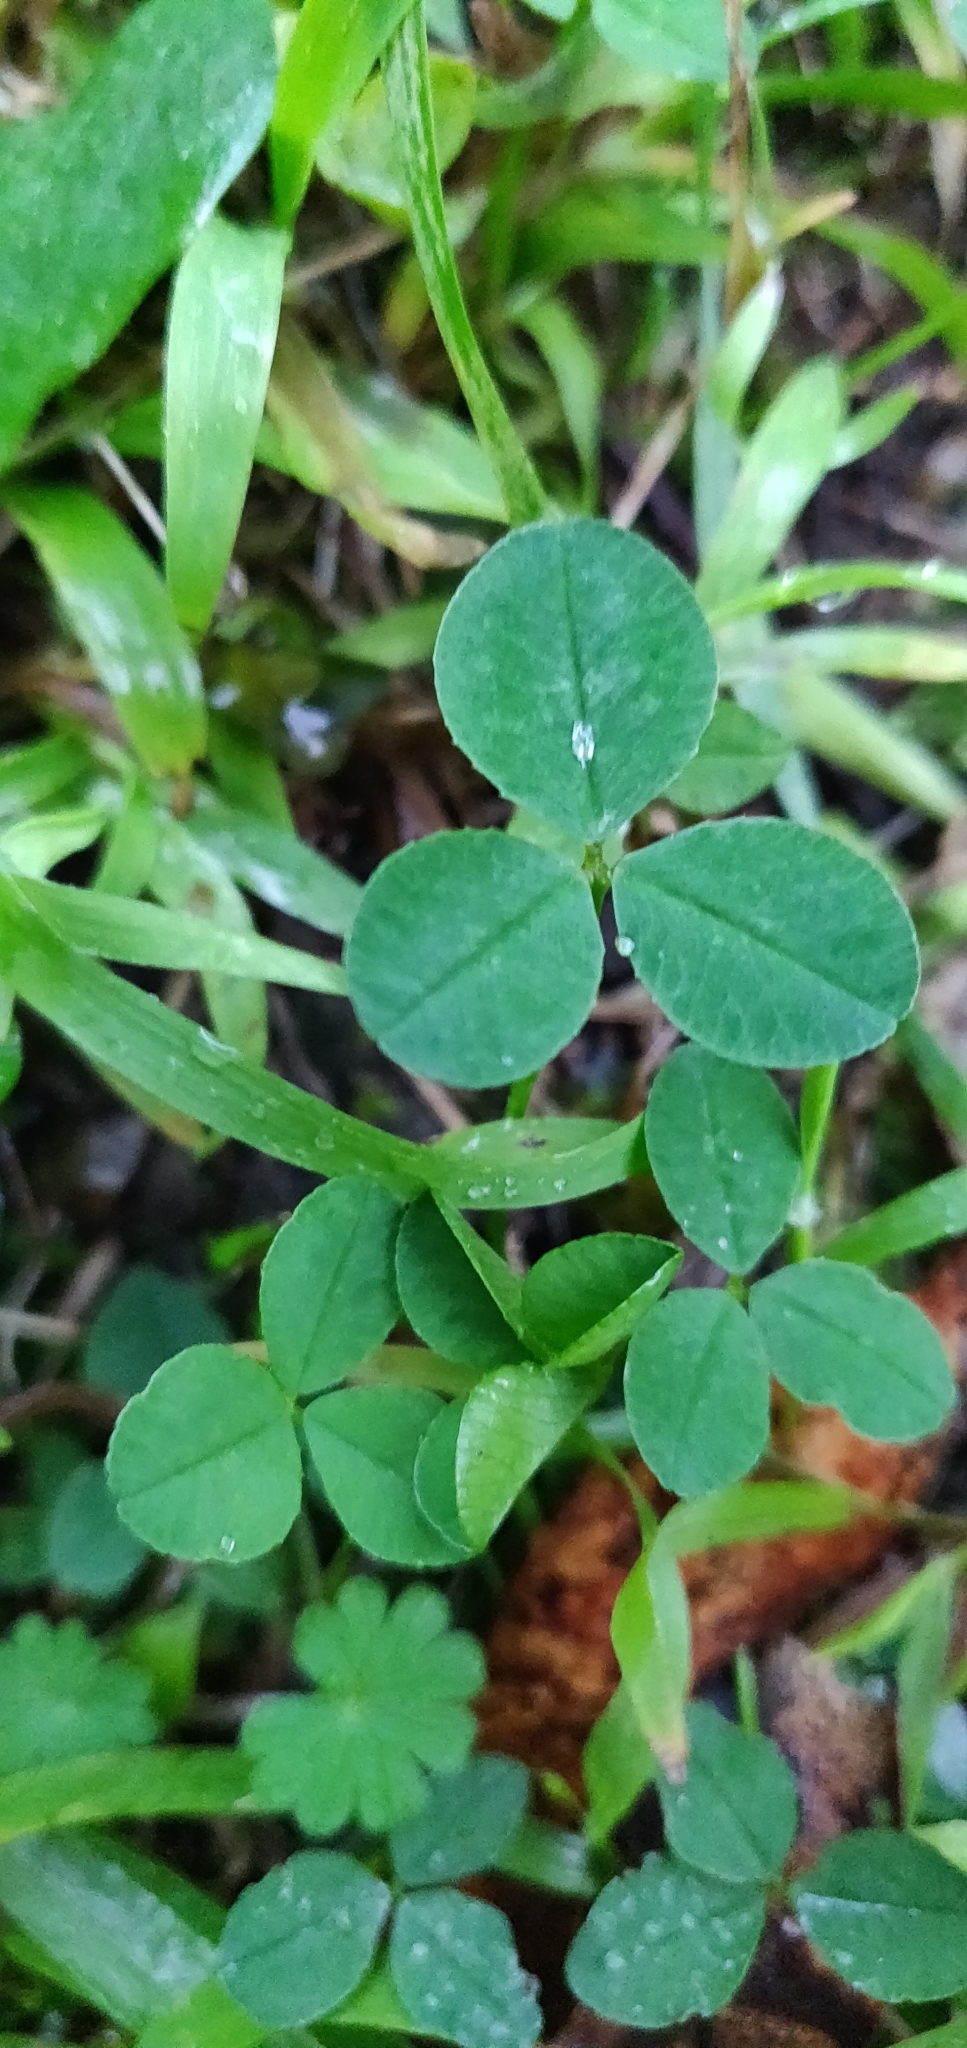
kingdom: Plantae
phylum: Tracheophyta
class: Magnoliopsida
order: Fabales
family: Fabaceae
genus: Trifolium
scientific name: Trifolium repens
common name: White clover
